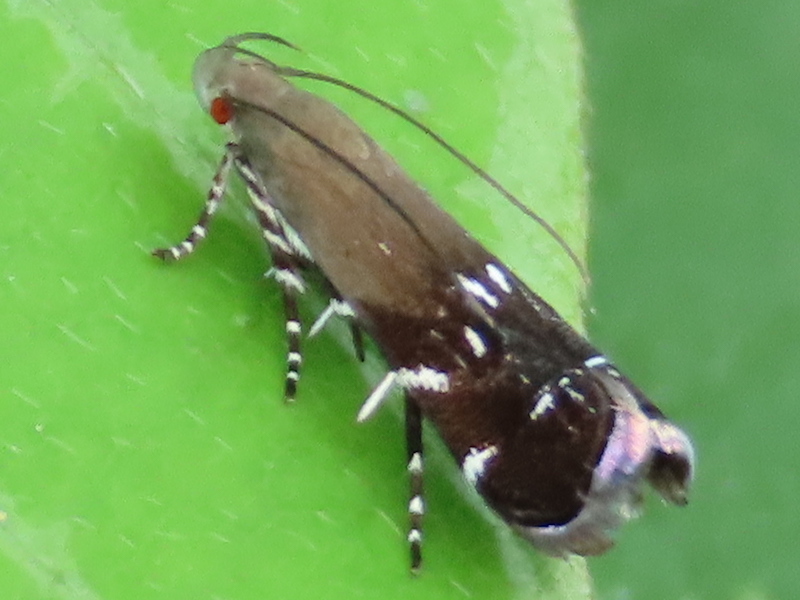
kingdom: Animalia
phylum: Arthropoda
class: Insecta
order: Lepidoptera
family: Gelechiidae
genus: Anacampsis
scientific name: Anacampsis levipedella
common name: Silver-dashed anacampsis
